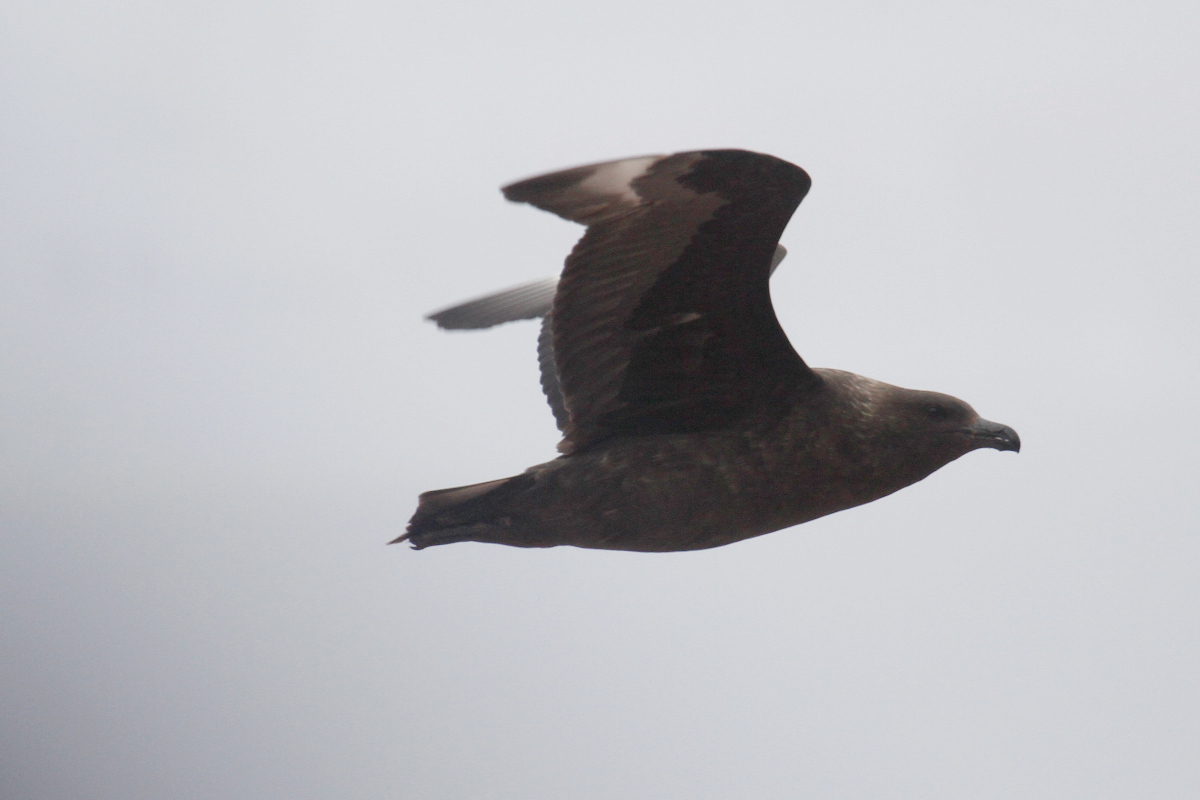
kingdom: Animalia
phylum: Chordata
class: Aves
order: Charadriiformes
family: Stercorariidae
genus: Stercorarius
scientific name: Stercorarius antarcticus
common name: Brown skua
